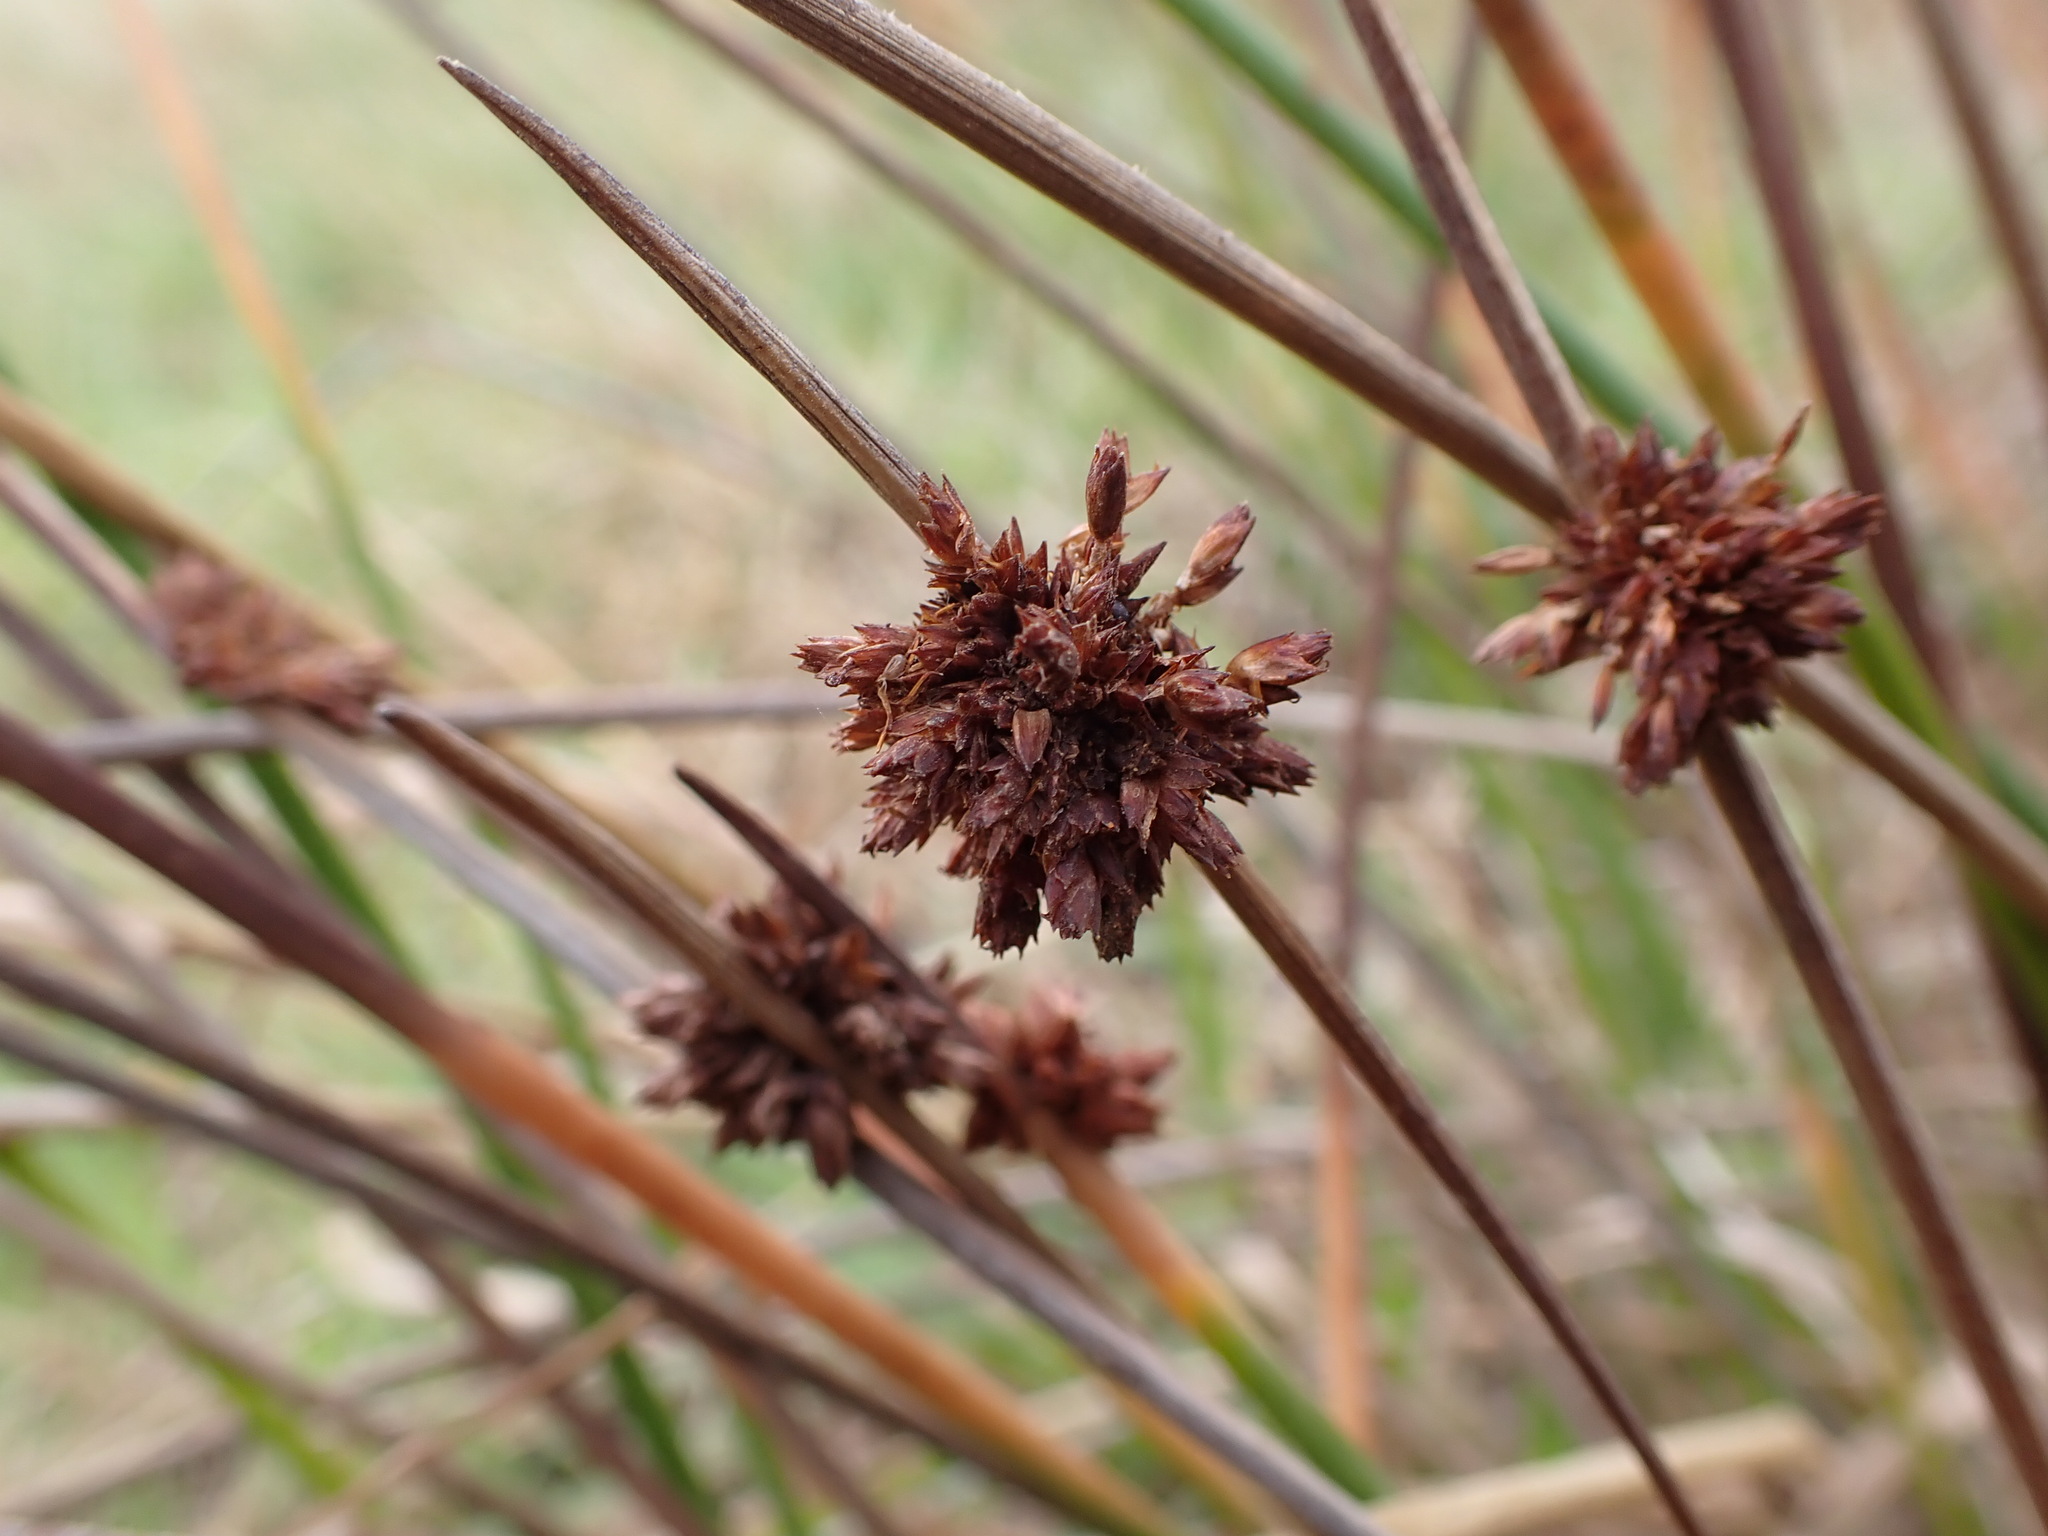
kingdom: Plantae
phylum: Tracheophyta
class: Liliopsida
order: Poales
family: Cyperaceae
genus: Ficinia
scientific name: Ficinia nodosa
